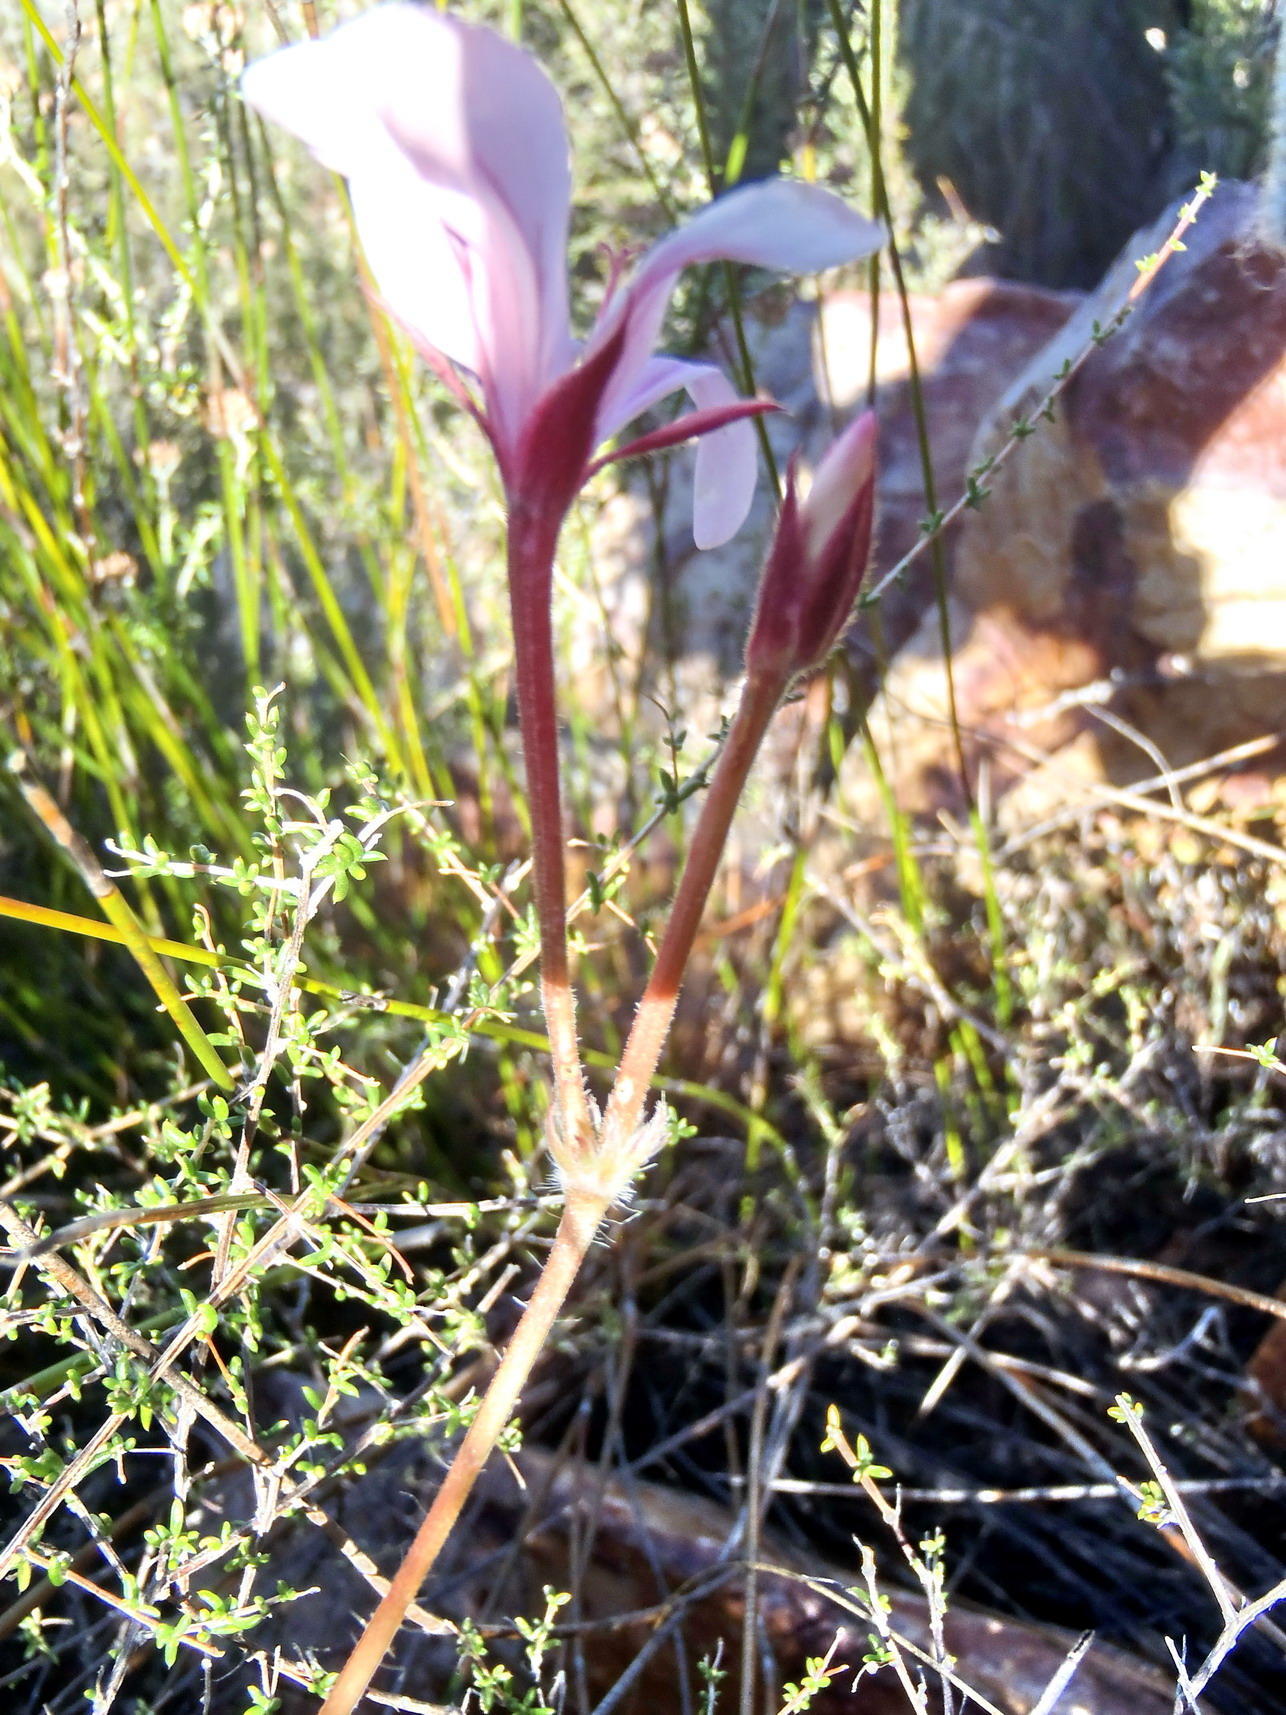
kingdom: Plantae
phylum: Tracheophyta
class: Magnoliopsida
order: Geraniales
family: Geraniaceae
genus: Pelargonium
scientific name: Pelargonium carneum
